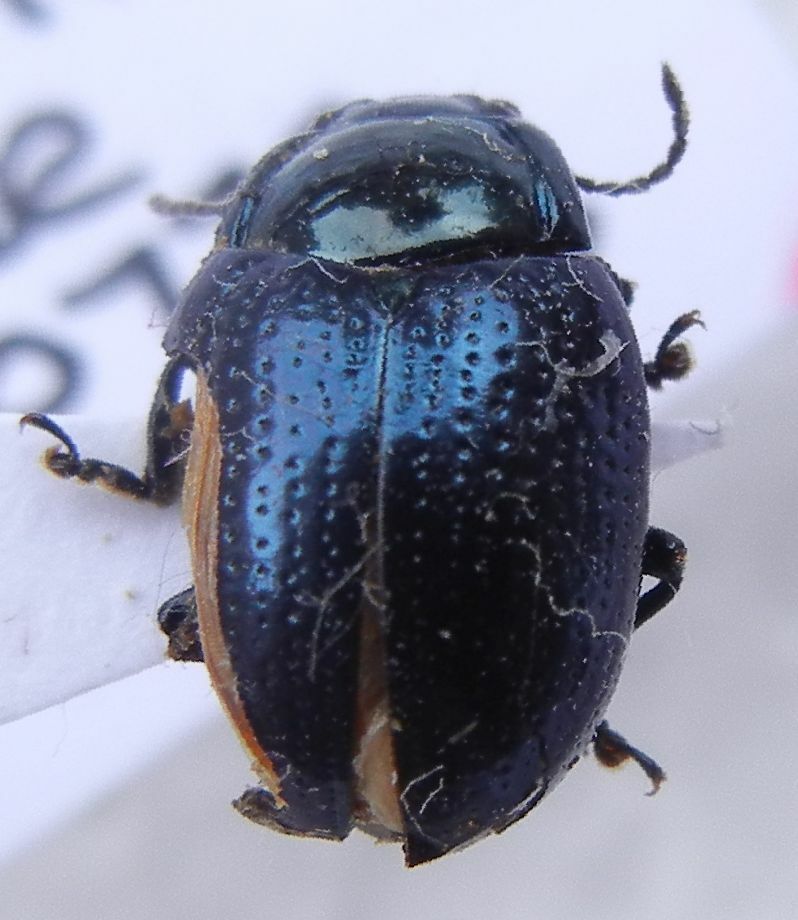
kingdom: Animalia
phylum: Arthropoda
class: Insecta
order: Coleoptera
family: Chrysomelidae
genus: Chrysolina
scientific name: Chrysolina oricalcia
